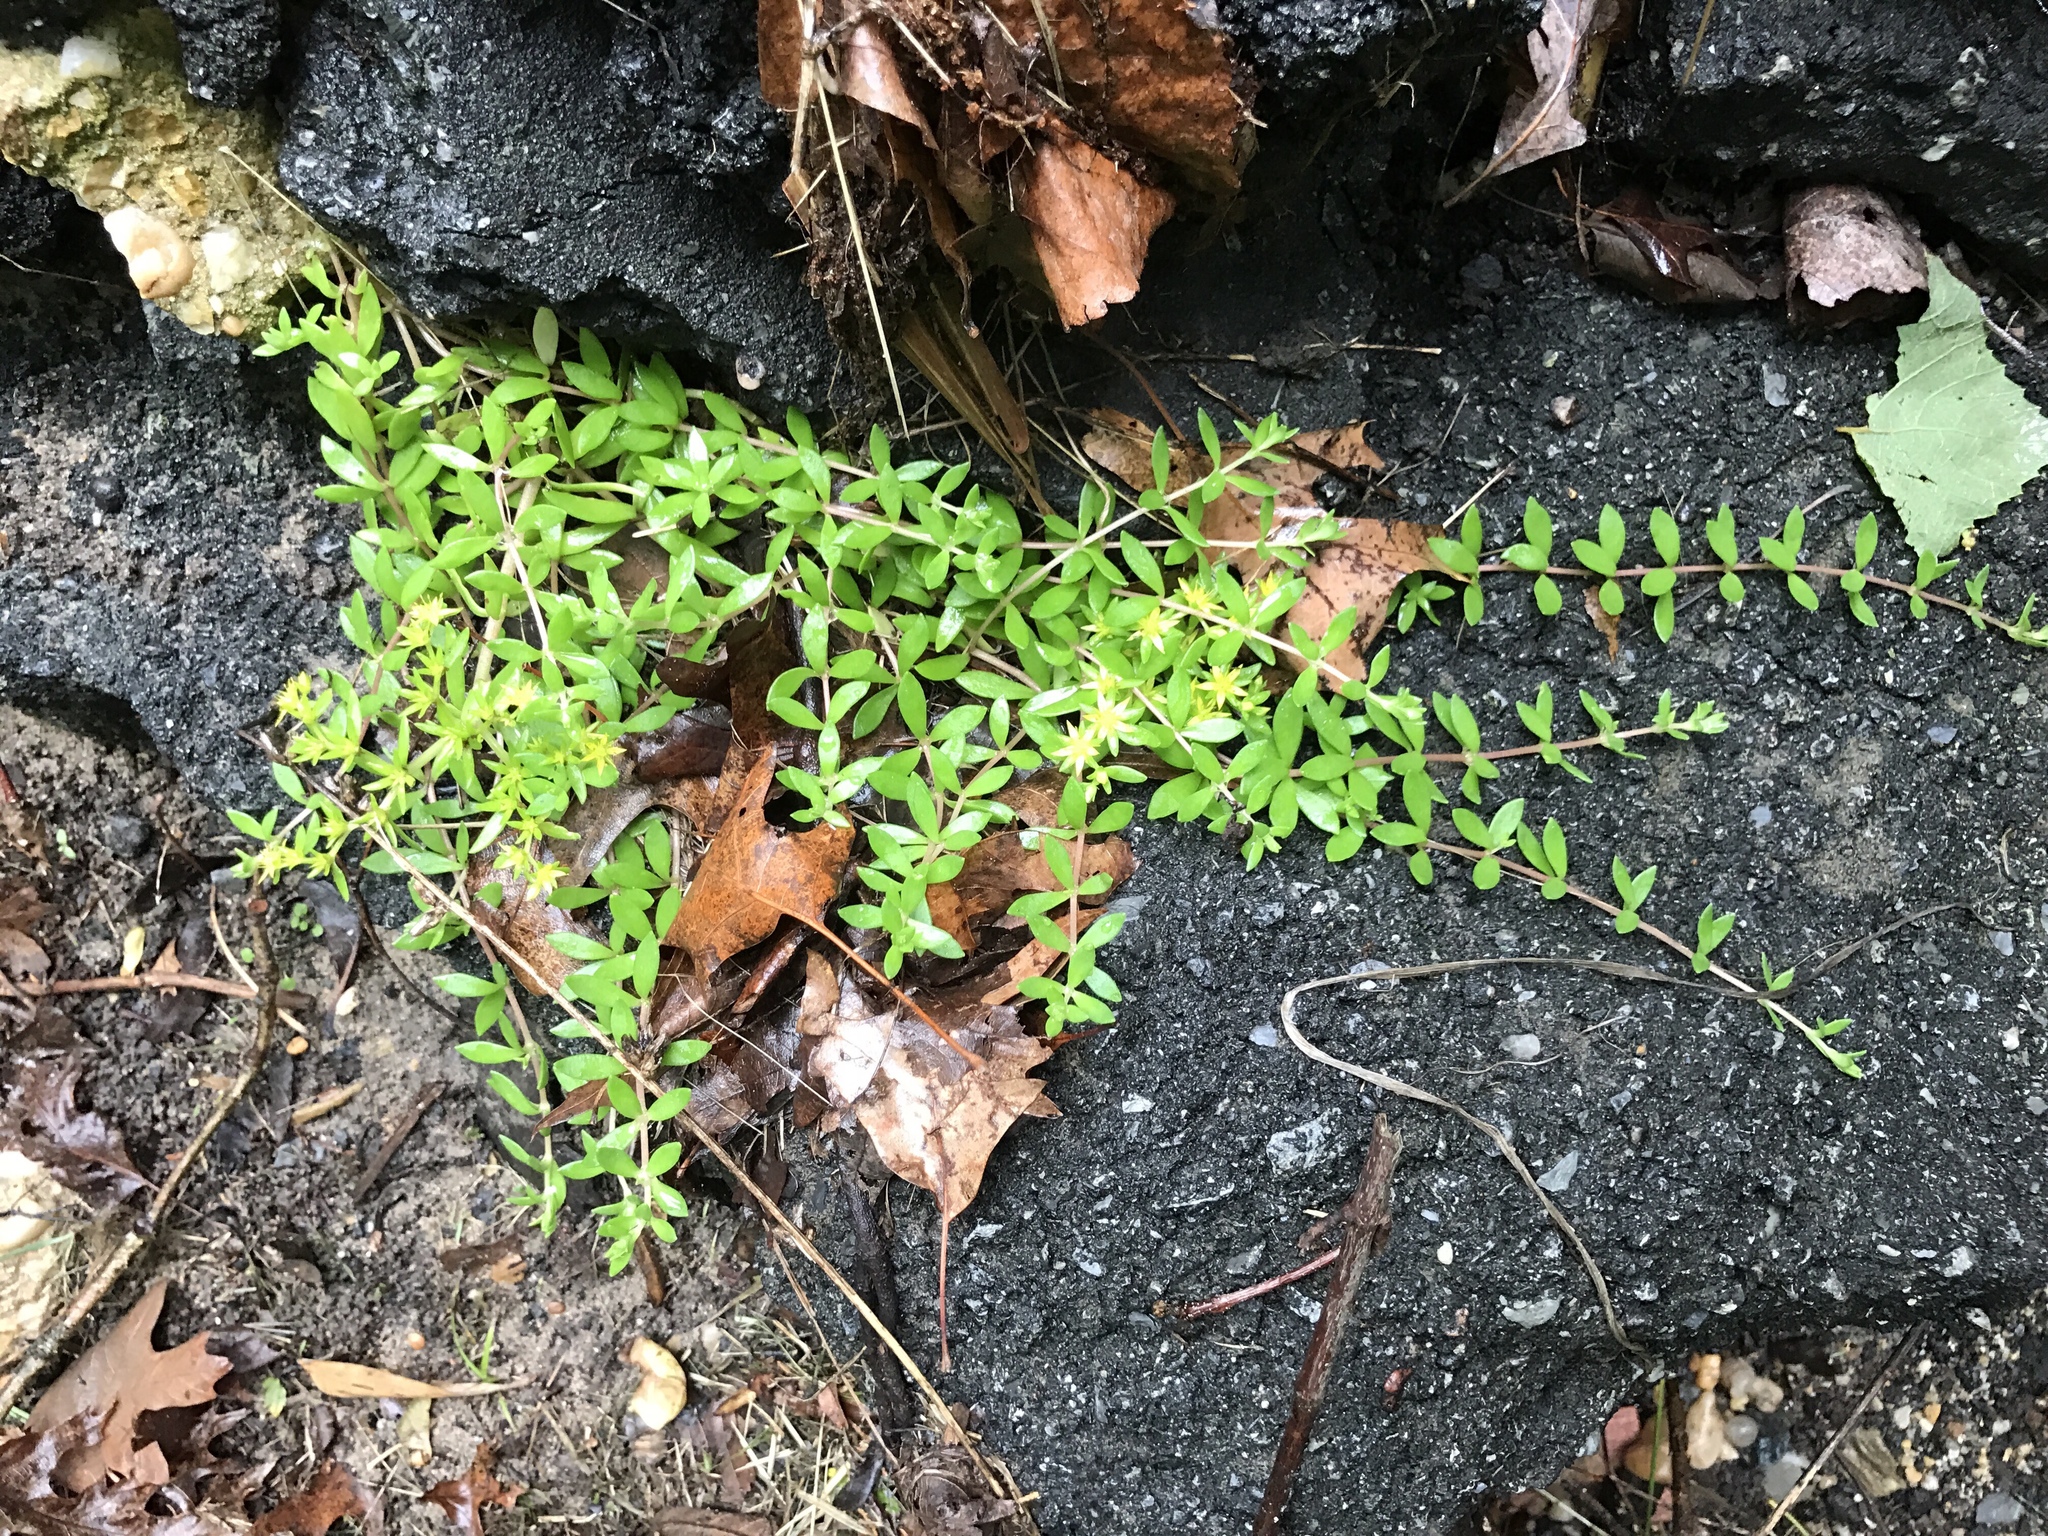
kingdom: Plantae
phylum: Tracheophyta
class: Magnoliopsida
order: Saxifragales
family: Crassulaceae
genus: Sedum
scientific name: Sedum sarmentosum
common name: Stringy stonecrop
